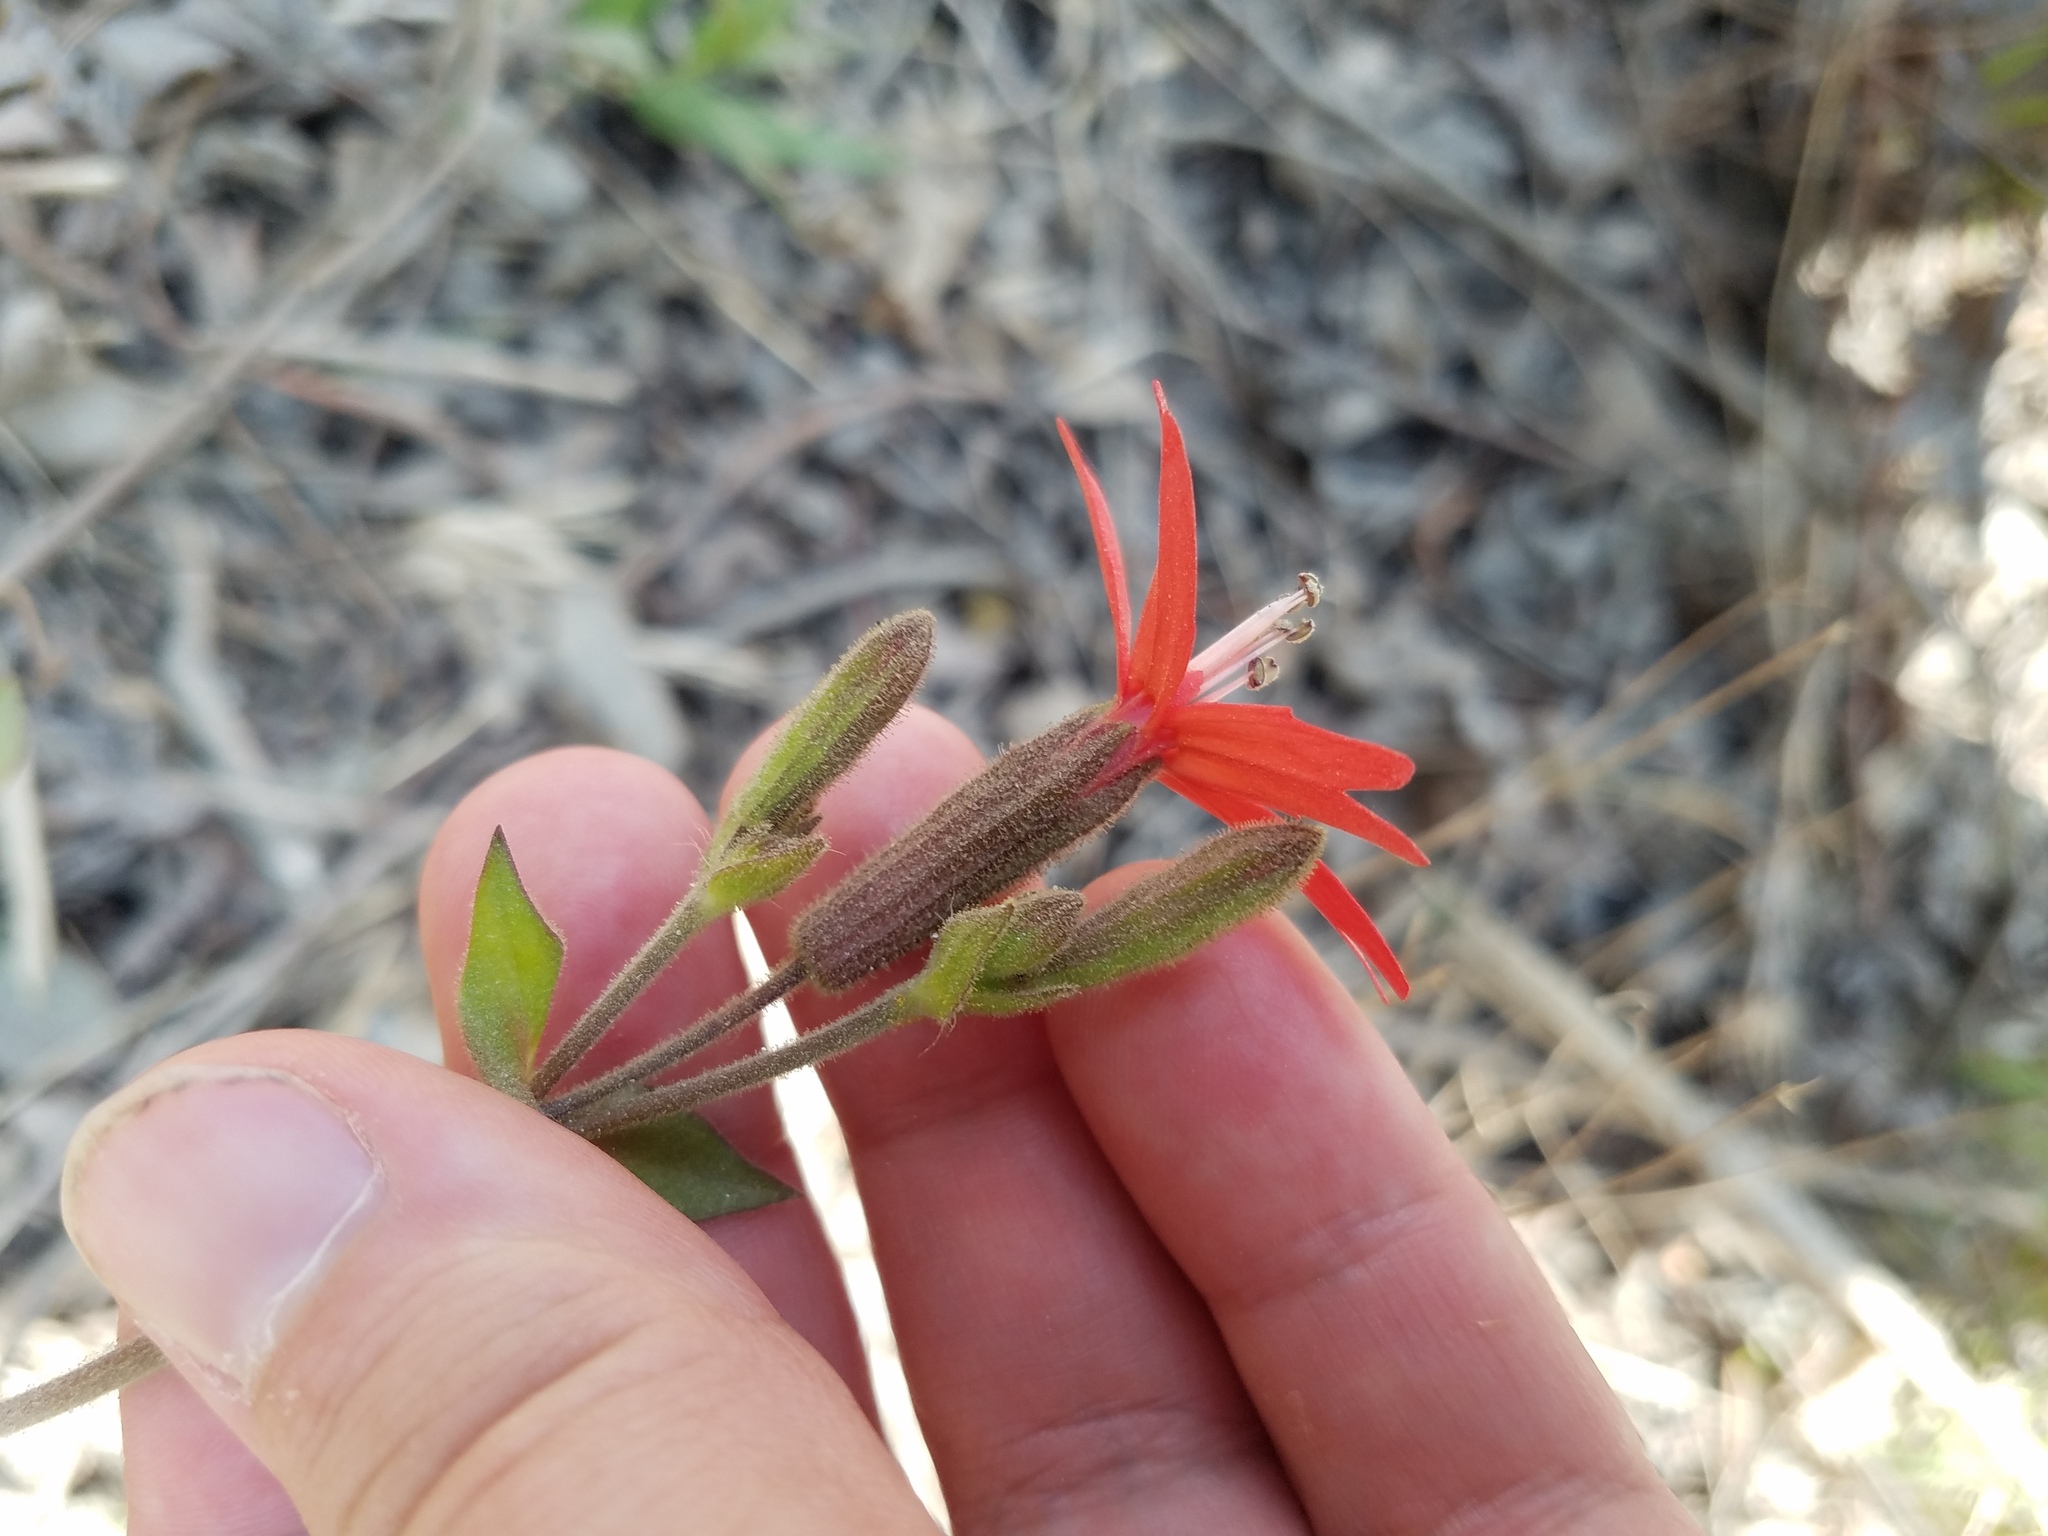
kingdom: Plantae
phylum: Tracheophyta
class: Magnoliopsida
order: Caryophyllales
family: Caryophyllaceae
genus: Silene
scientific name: Silene virginica
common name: Fire-pink
